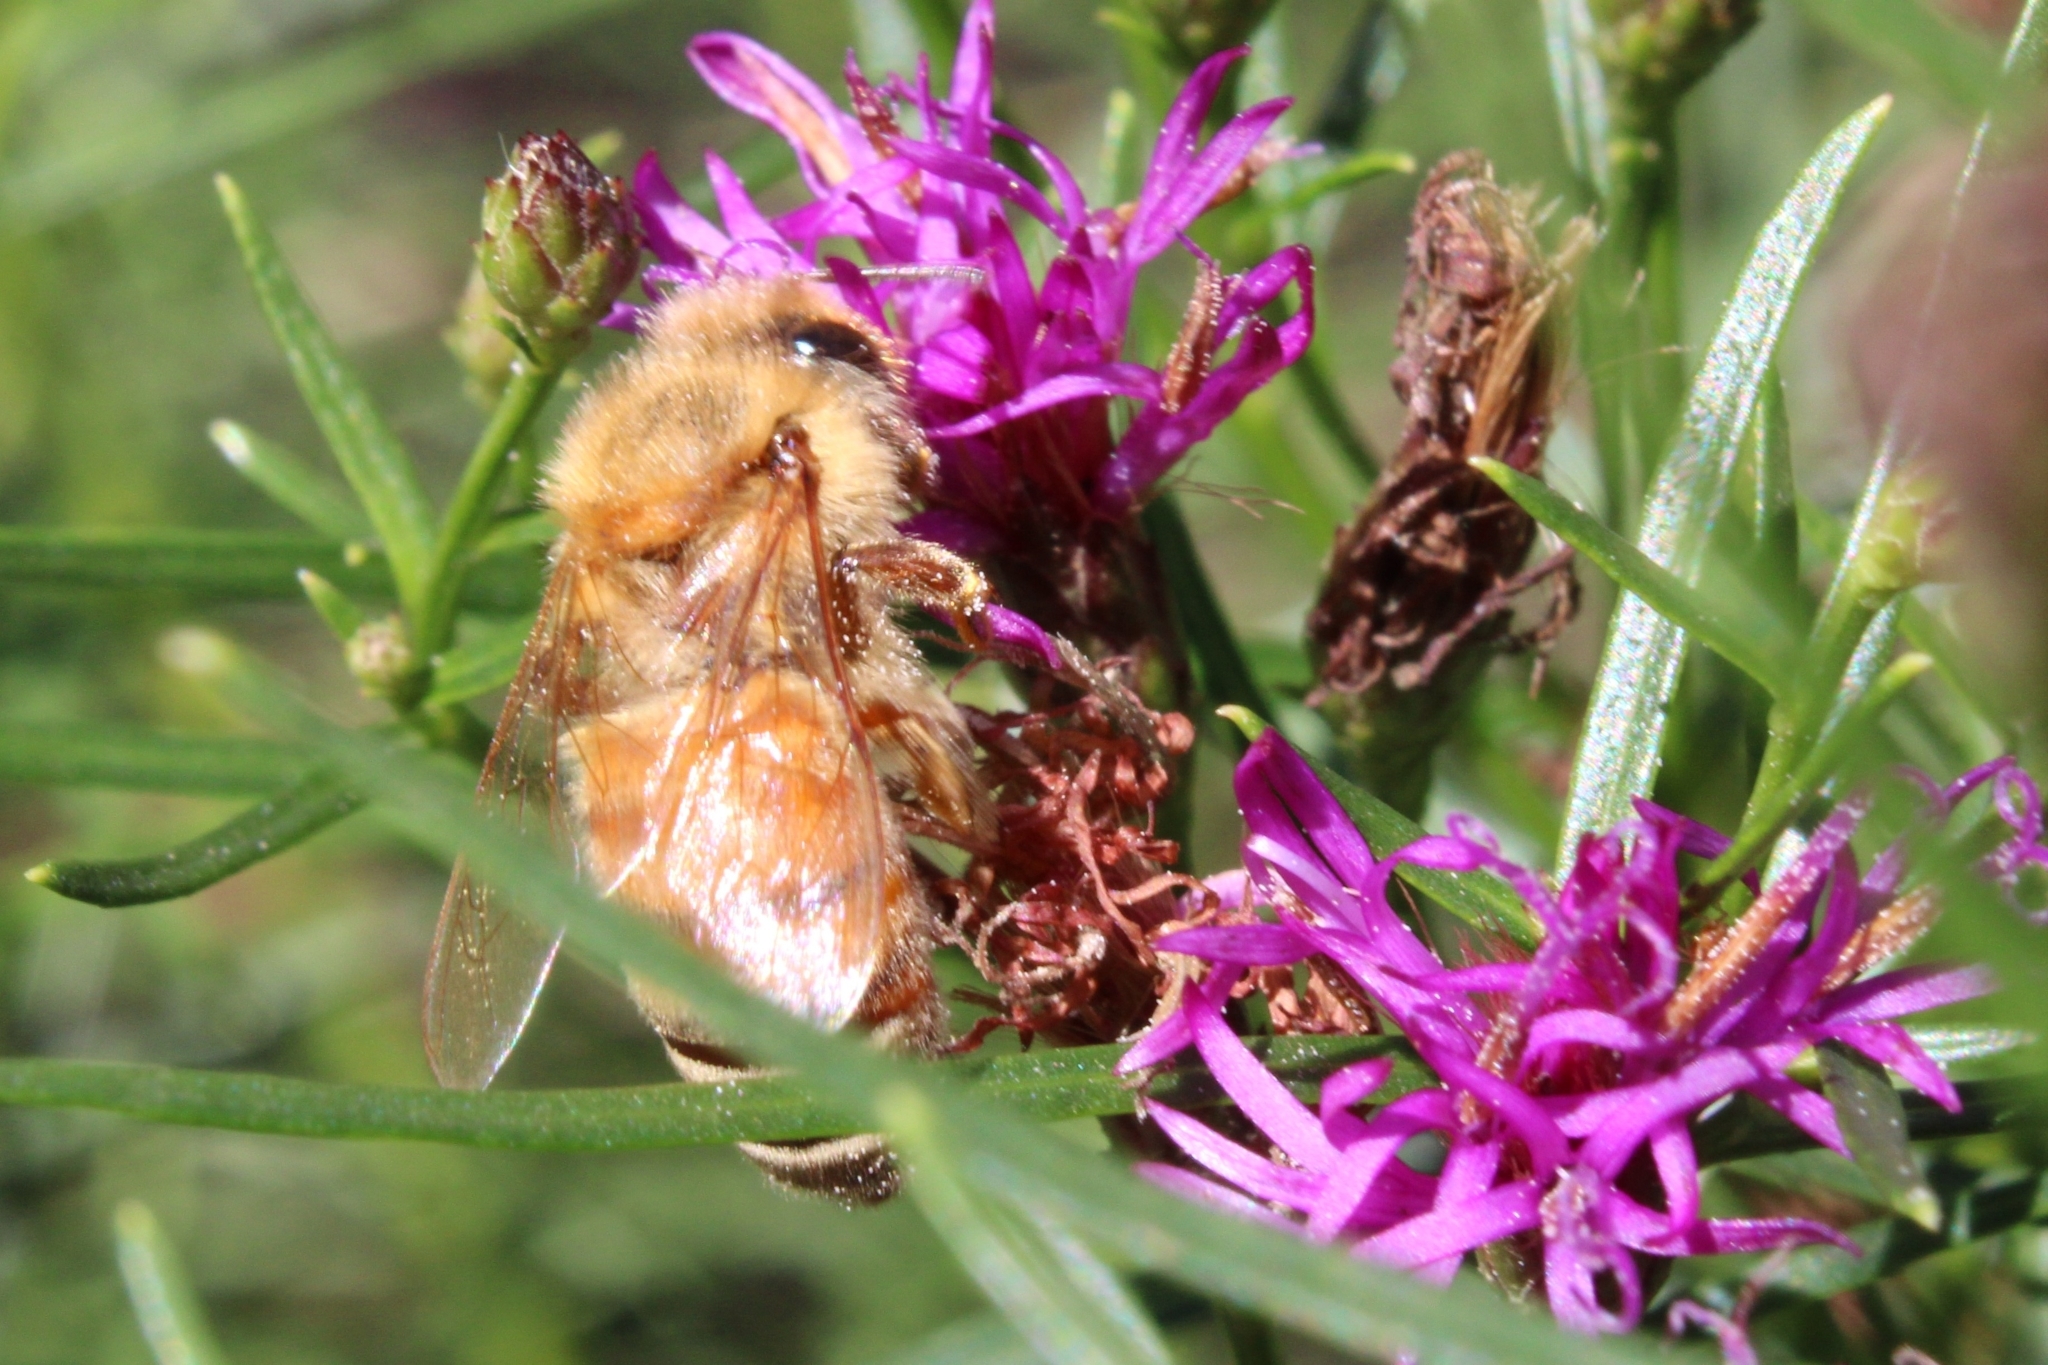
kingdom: Animalia
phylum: Arthropoda
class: Insecta
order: Hymenoptera
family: Apidae
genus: Apis
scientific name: Apis mellifera
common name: Honey bee
